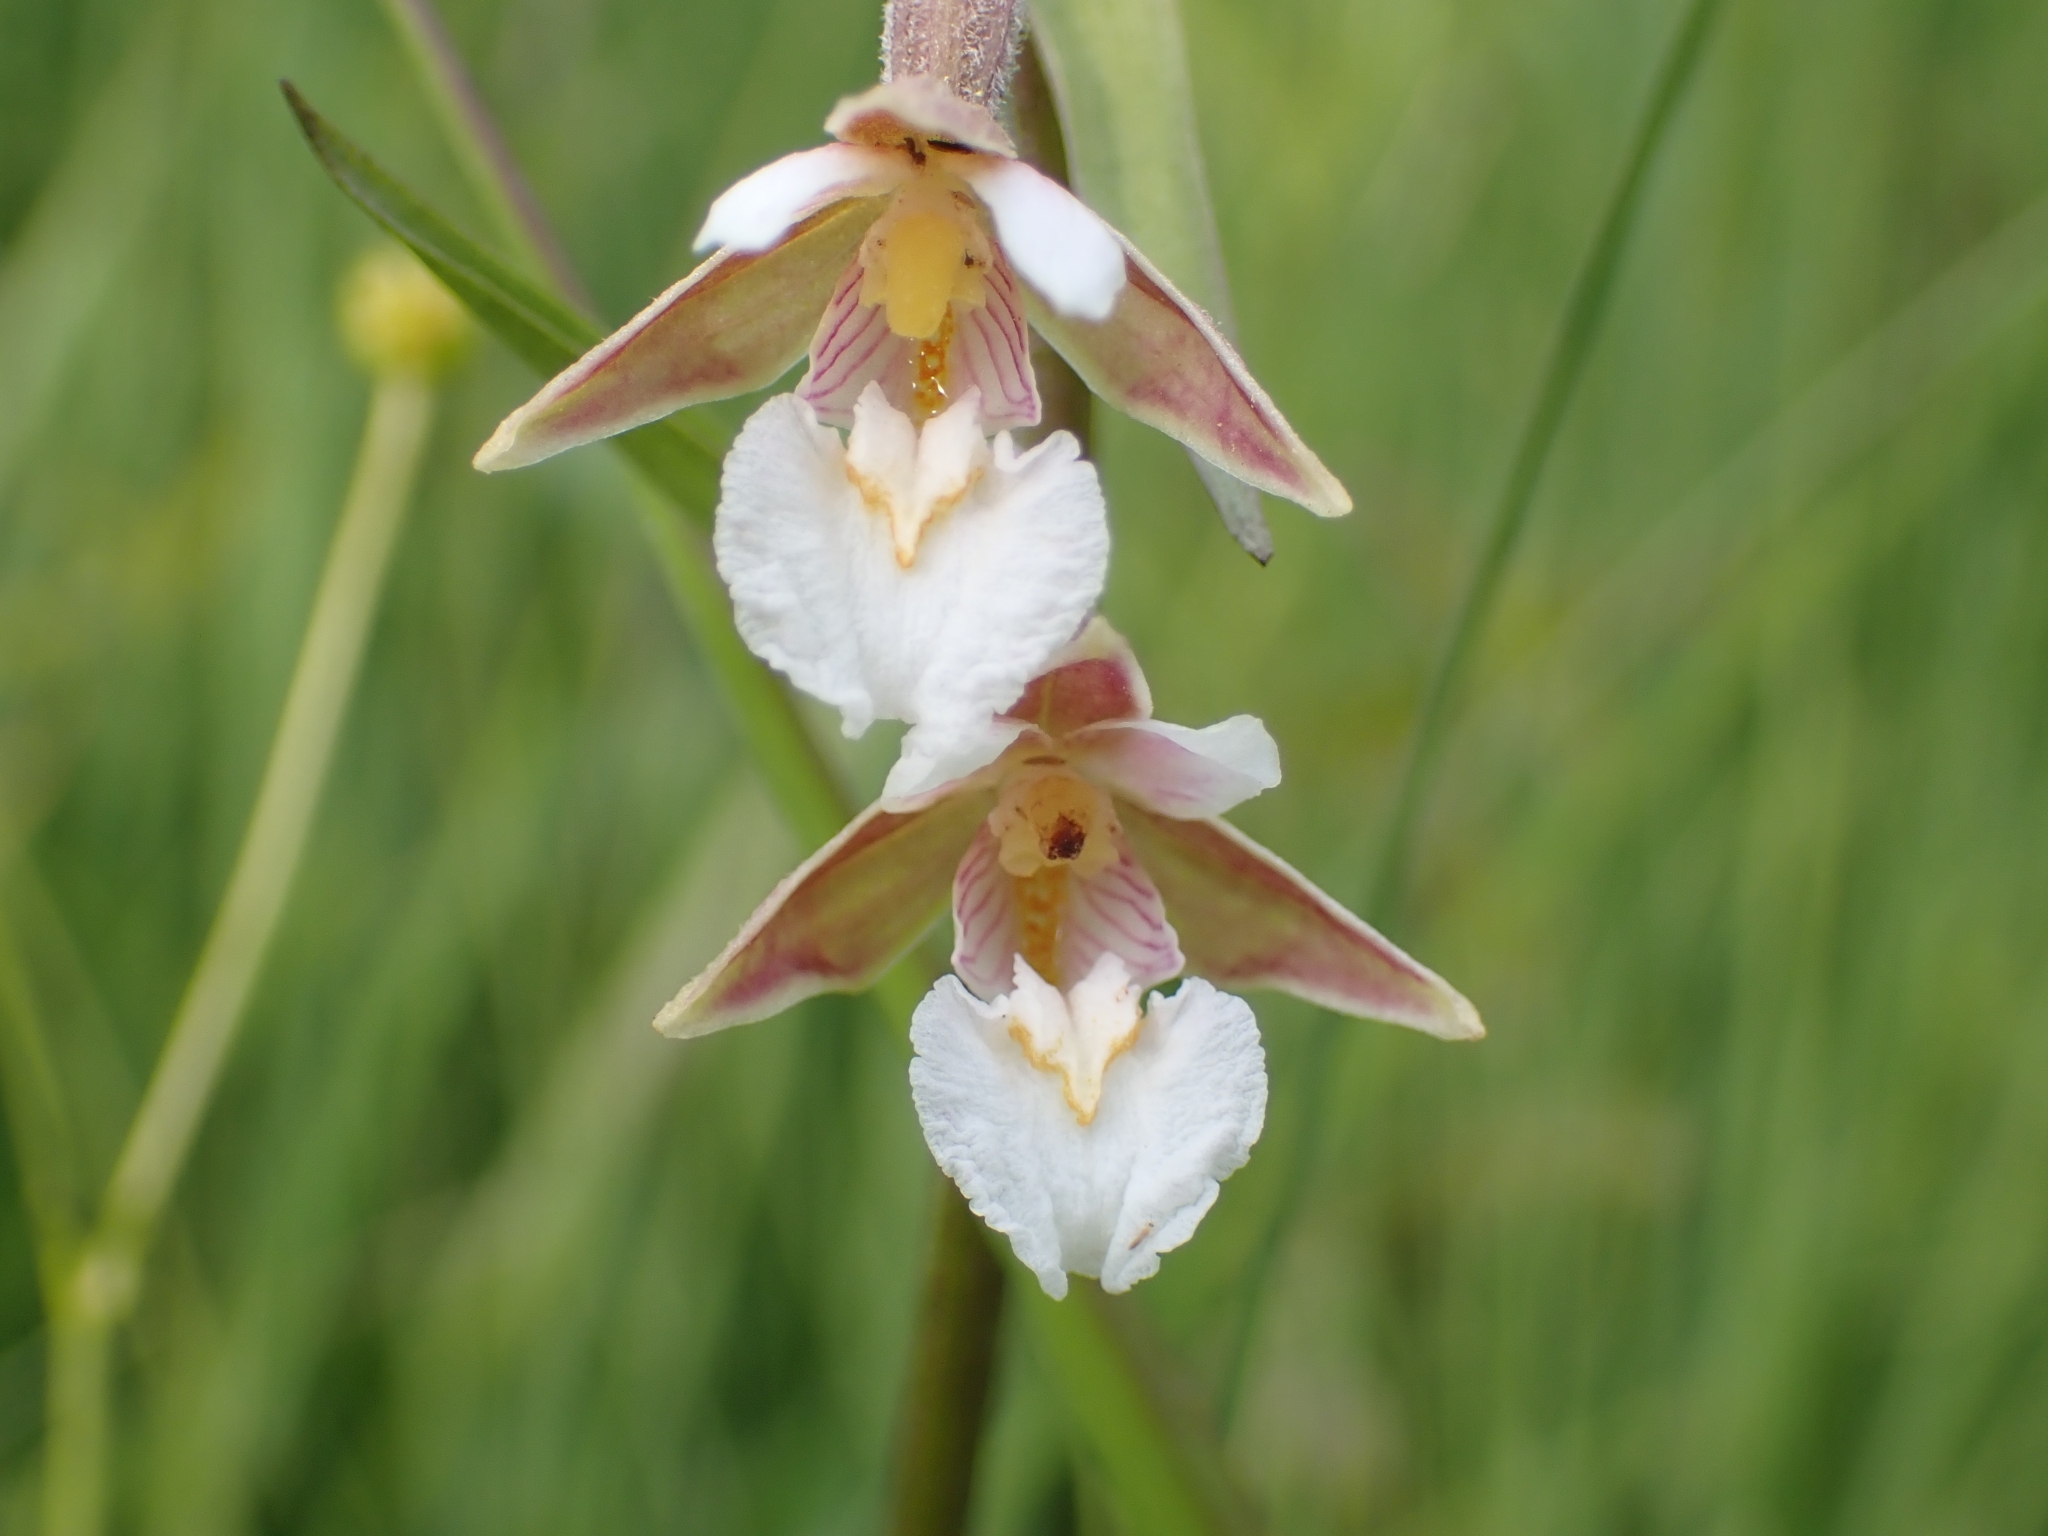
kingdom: Plantae
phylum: Tracheophyta
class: Liliopsida
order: Asparagales
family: Orchidaceae
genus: Epipactis
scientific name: Epipactis palustris
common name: Marsh helleborine
